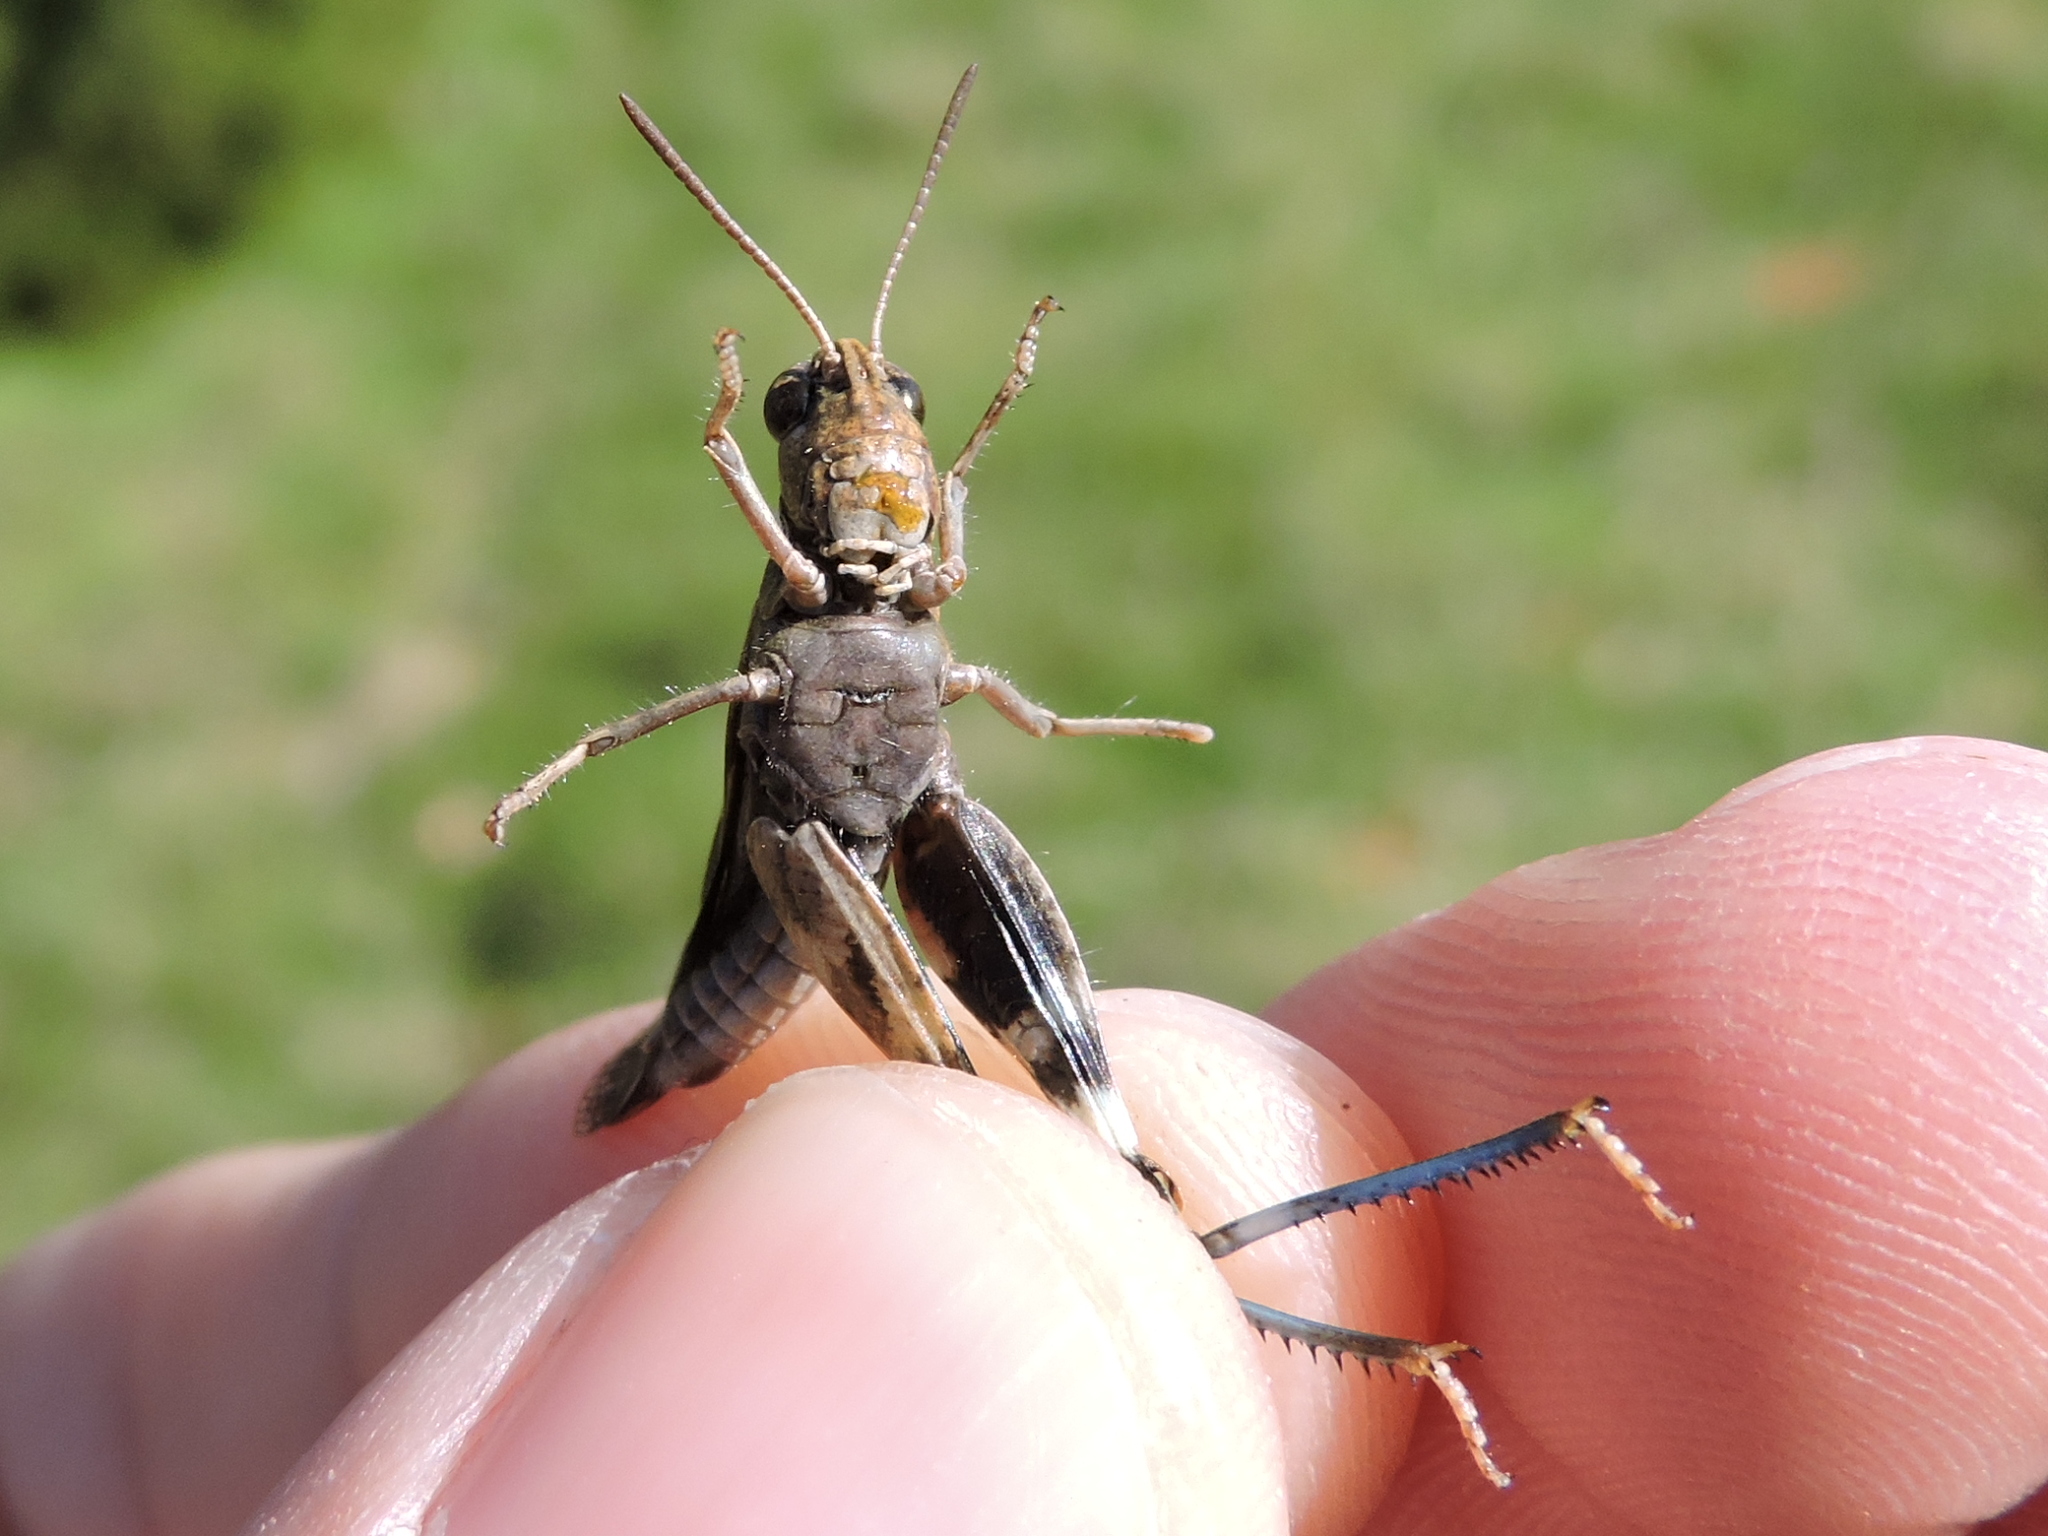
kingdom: Animalia
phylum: Arthropoda
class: Insecta
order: Orthoptera
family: Acrididae
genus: Encoptolophus
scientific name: Encoptolophus costalis
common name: Dusky grasshopper
